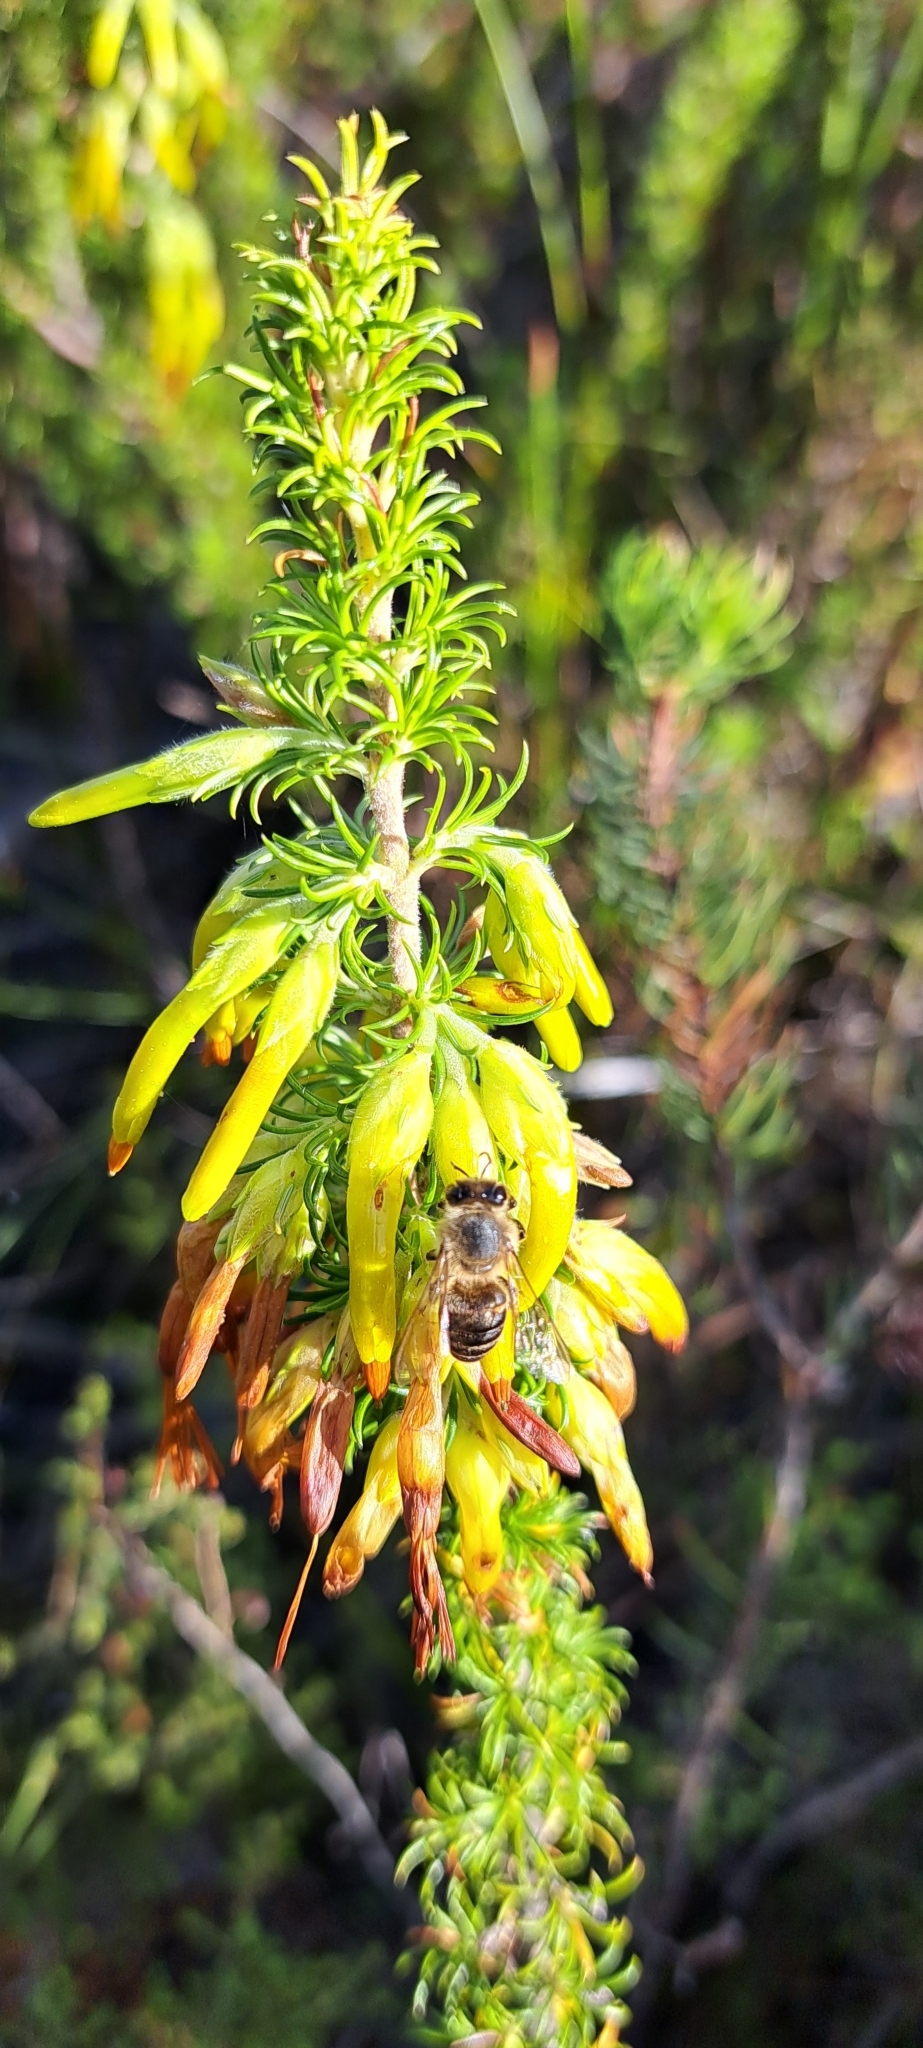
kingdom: Plantae
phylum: Tracheophyta
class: Magnoliopsida
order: Ericales
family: Ericaceae
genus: Erica
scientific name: Erica coccinea
